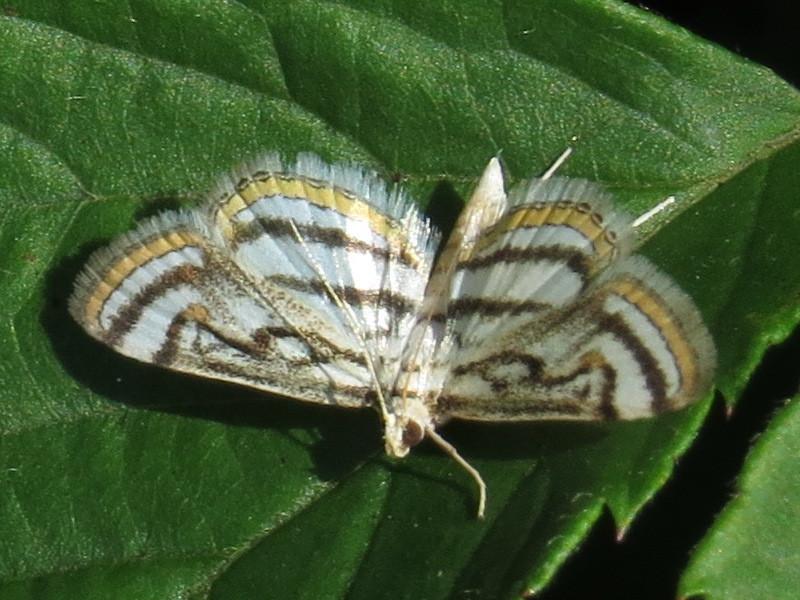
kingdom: Animalia
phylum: Arthropoda
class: Insecta
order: Lepidoptera
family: Crambidae
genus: Parapoynx
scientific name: Parapoynx badiusalis
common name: Chestnut-marked pondweed moth
